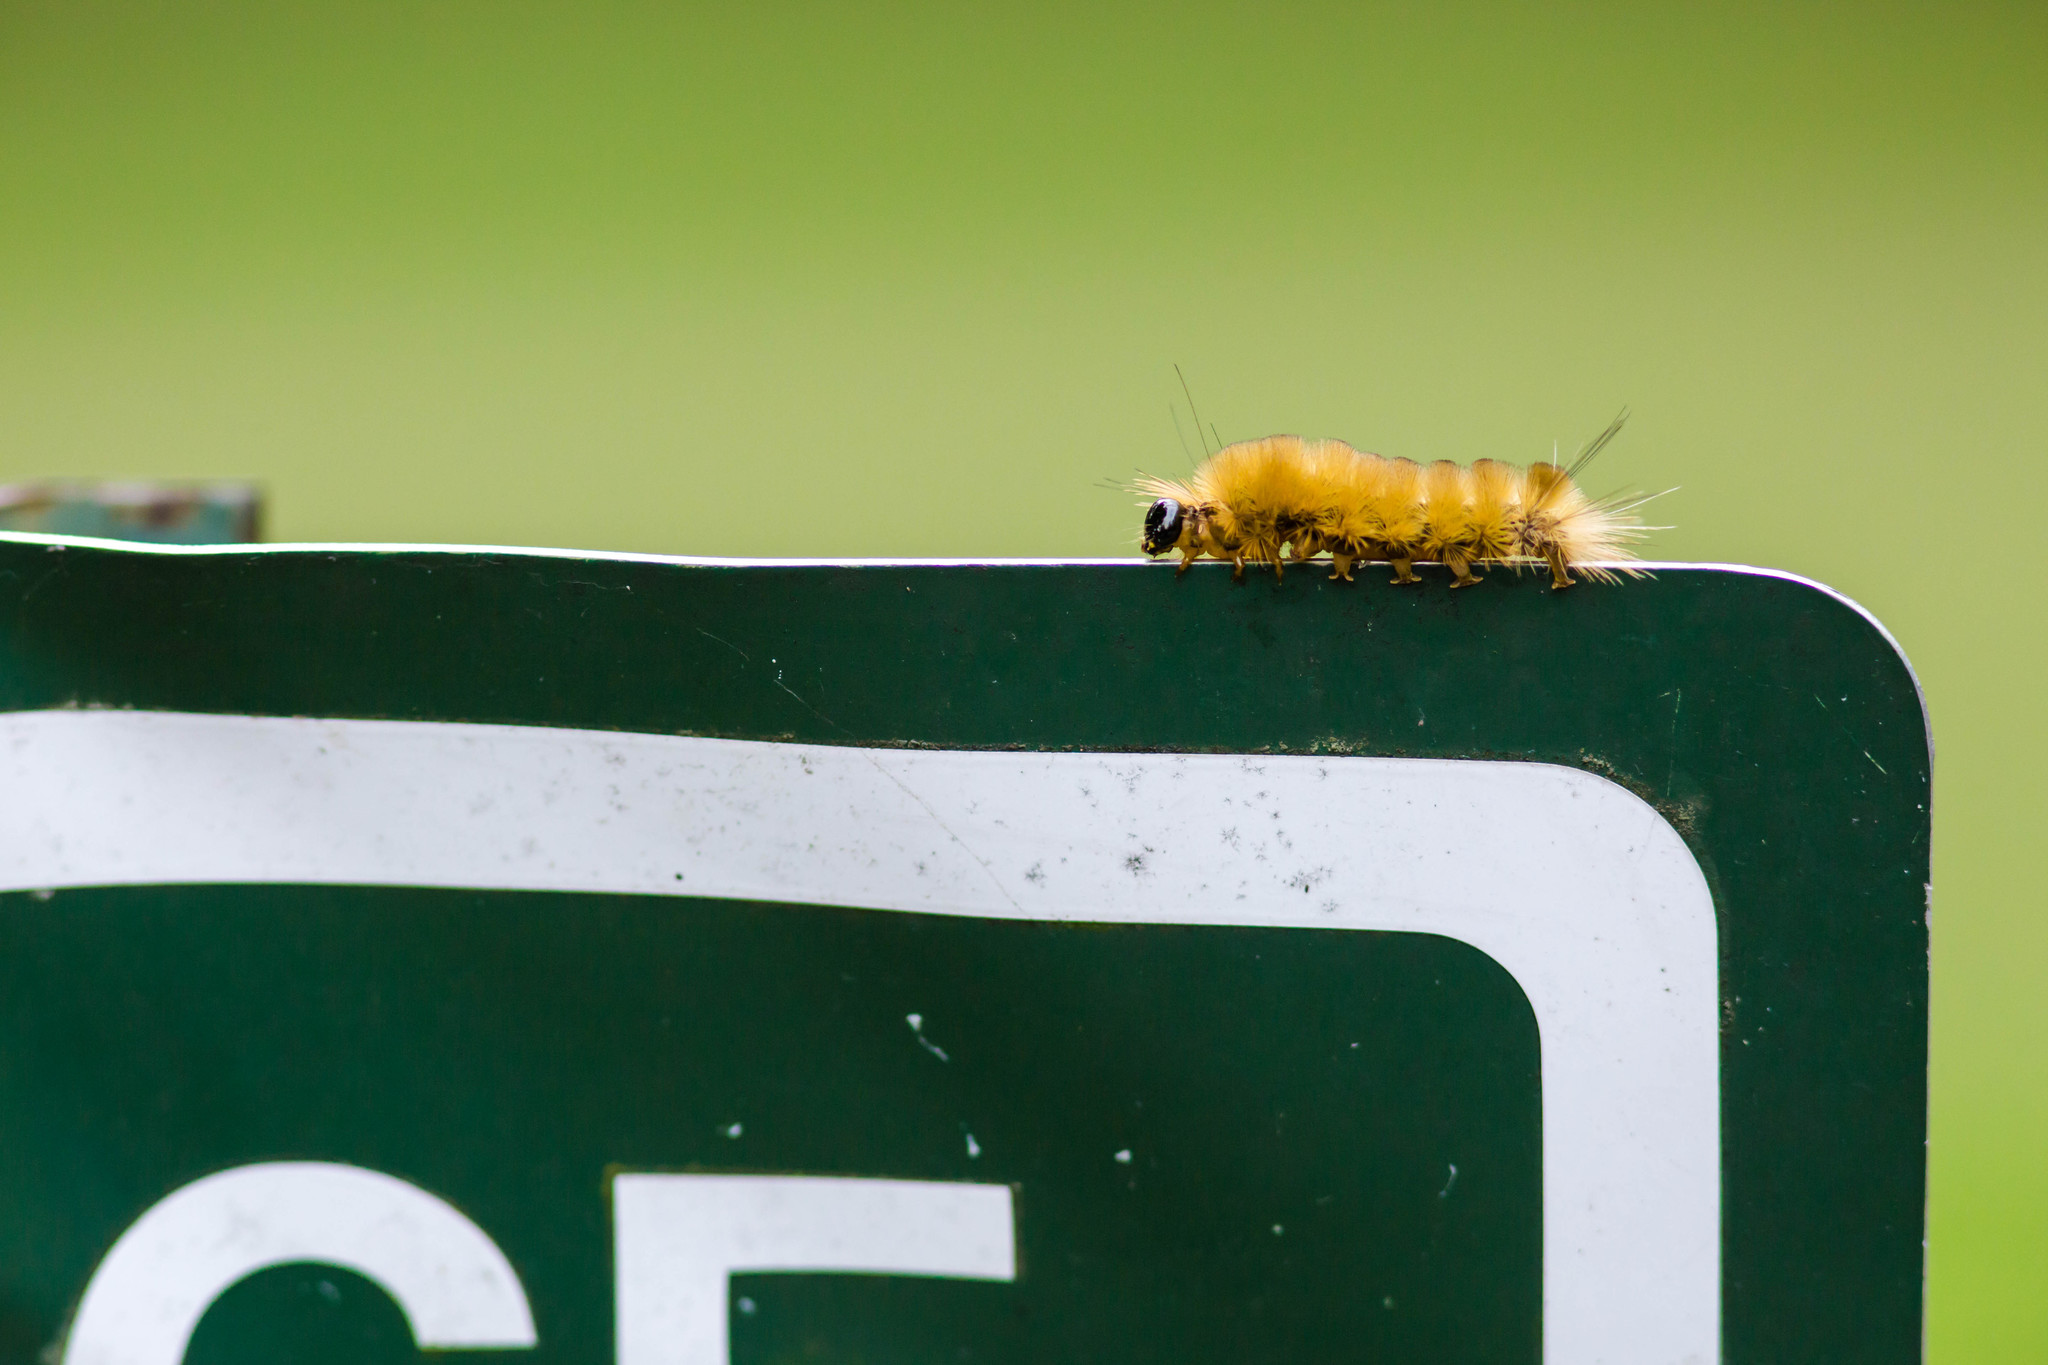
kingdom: Animalia
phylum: Arthropoda
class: Insecta
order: Lepidoptera
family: Erebidae
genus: Halysidota
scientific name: Halysidota tessellaris
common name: Banded tussock moth
